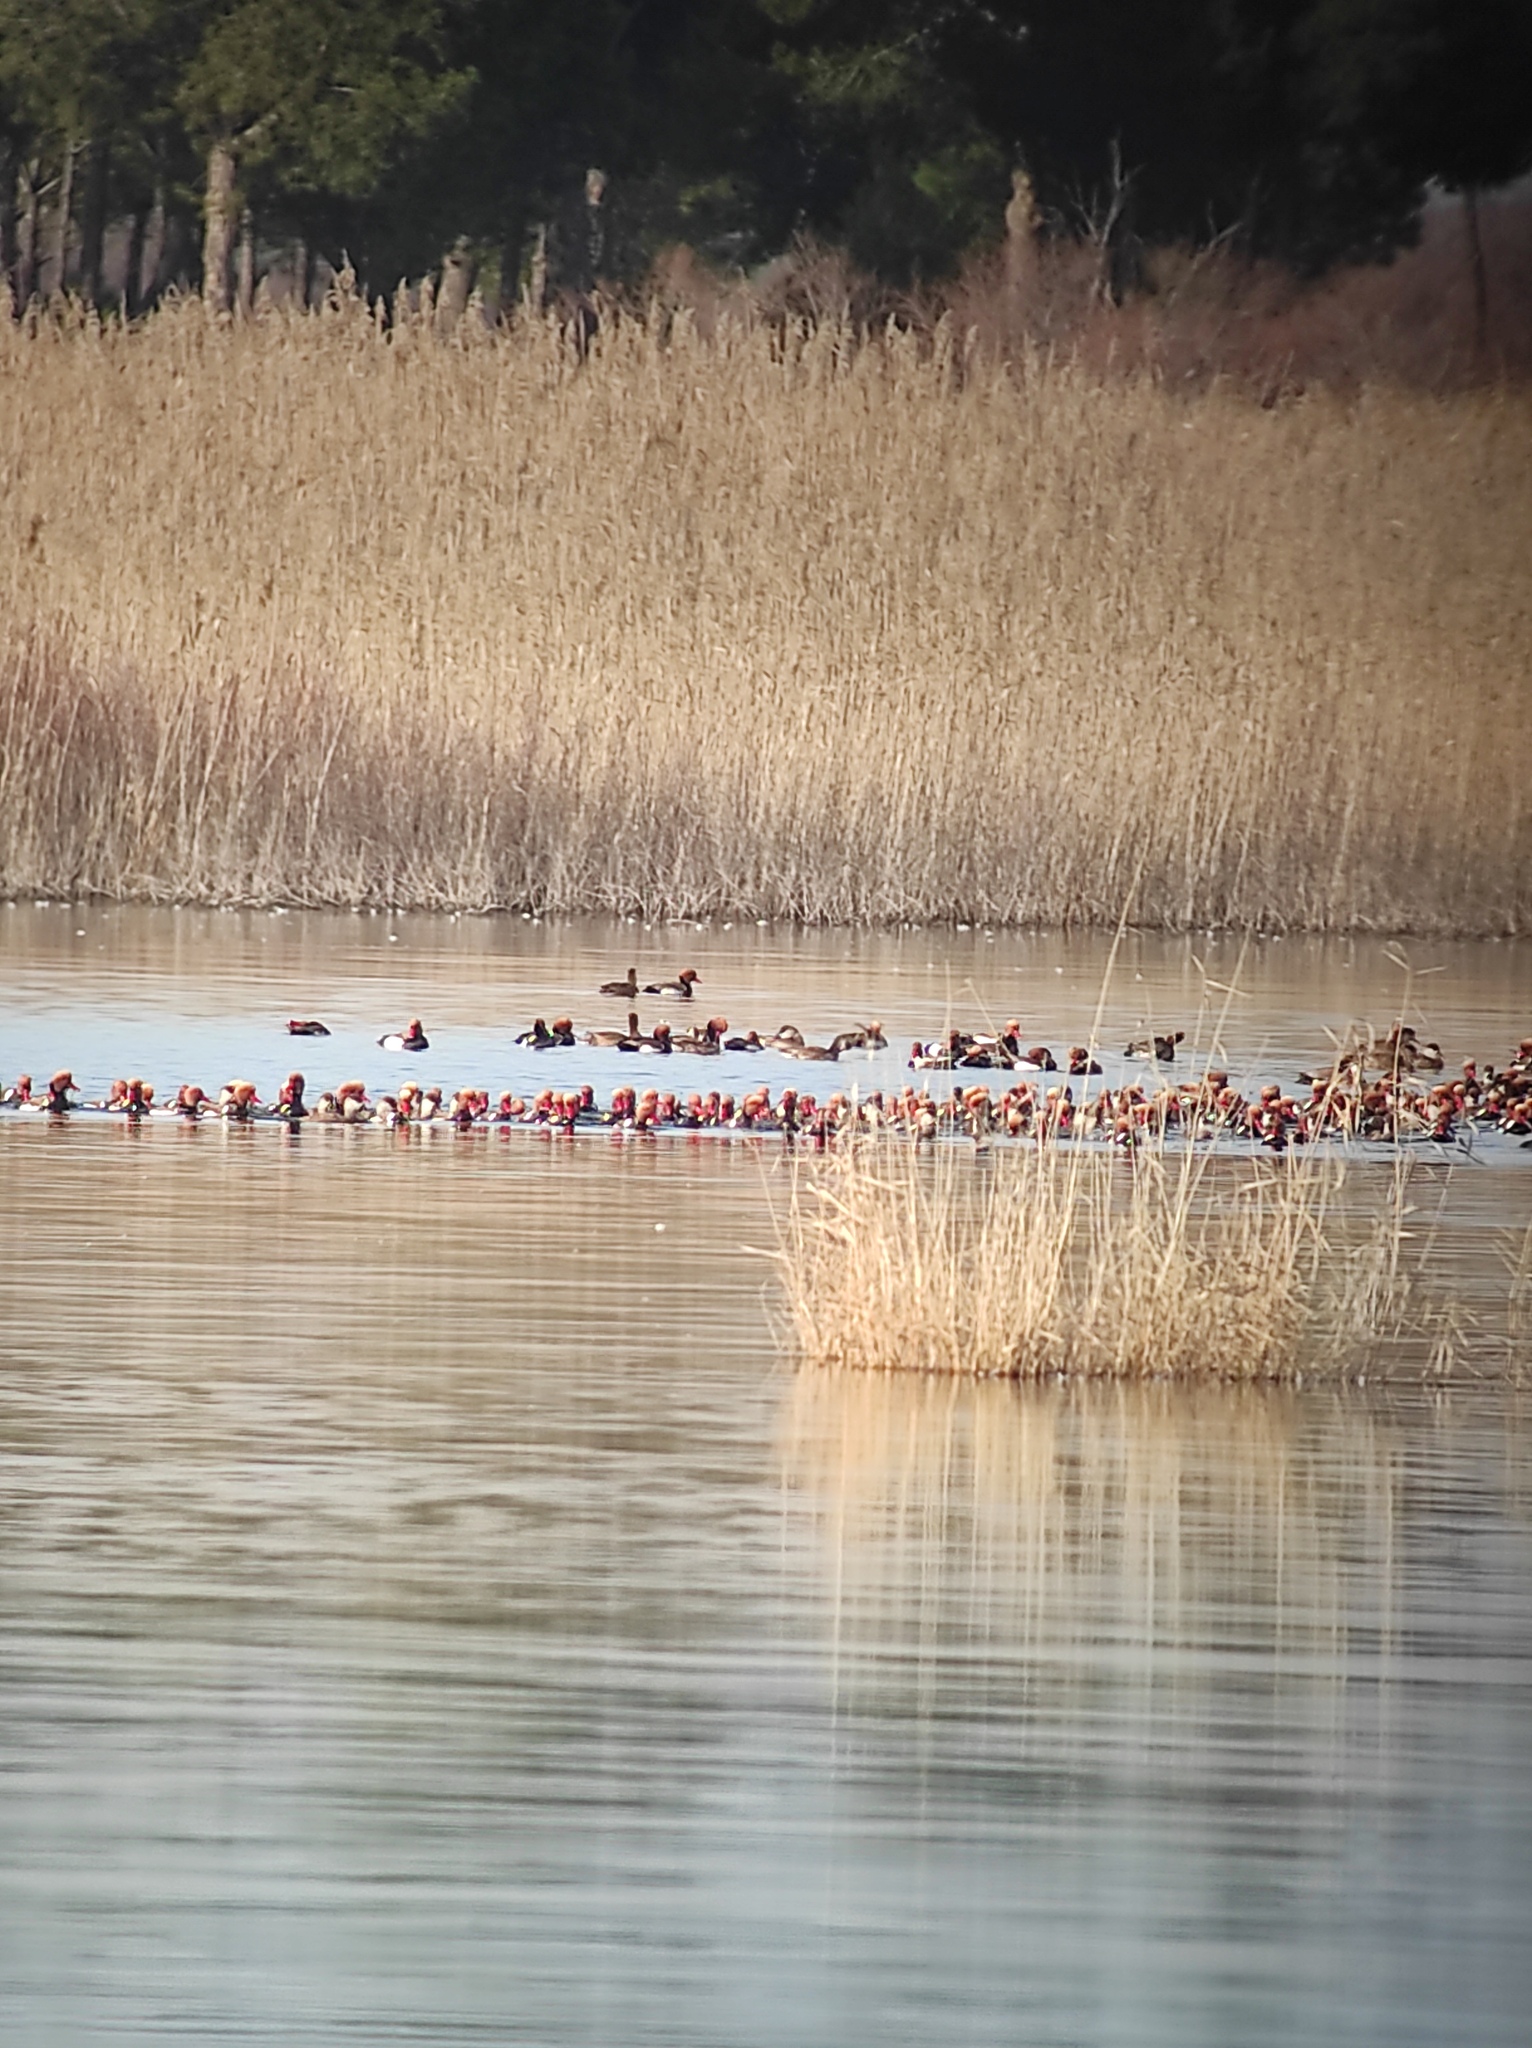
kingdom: Animalia
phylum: Chordata
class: Aves
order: Phoenicopteriformes
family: Phoenicopteridae
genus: Phoenicopterus
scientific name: Phoenicopterus roseus
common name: Greater flamingo
